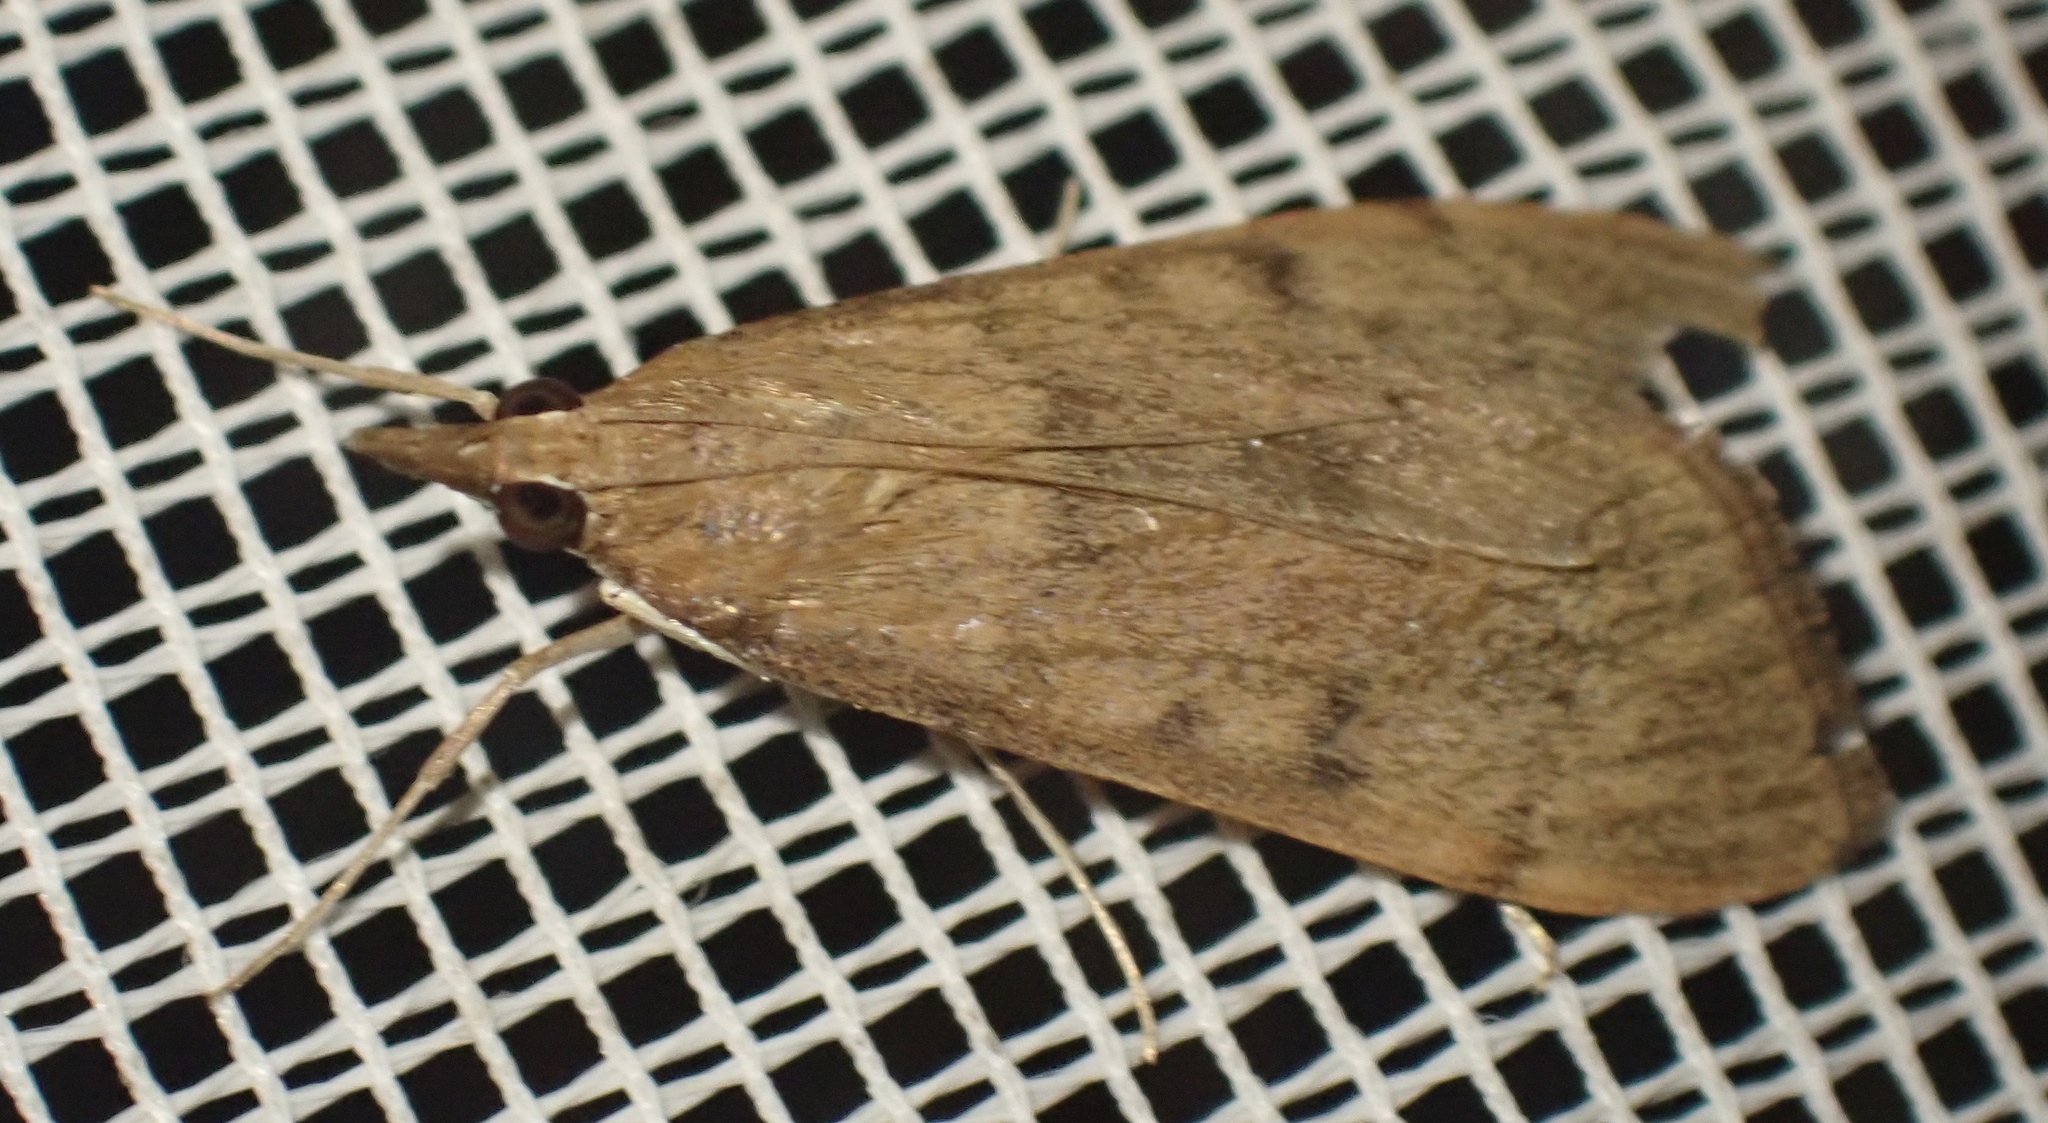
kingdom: Animalia
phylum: Arthropoda
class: Insecta
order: Lepidoptera
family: Crambidae
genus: Uresiphita
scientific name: Uresiphita gilvata
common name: Yellow-underwing pearl
